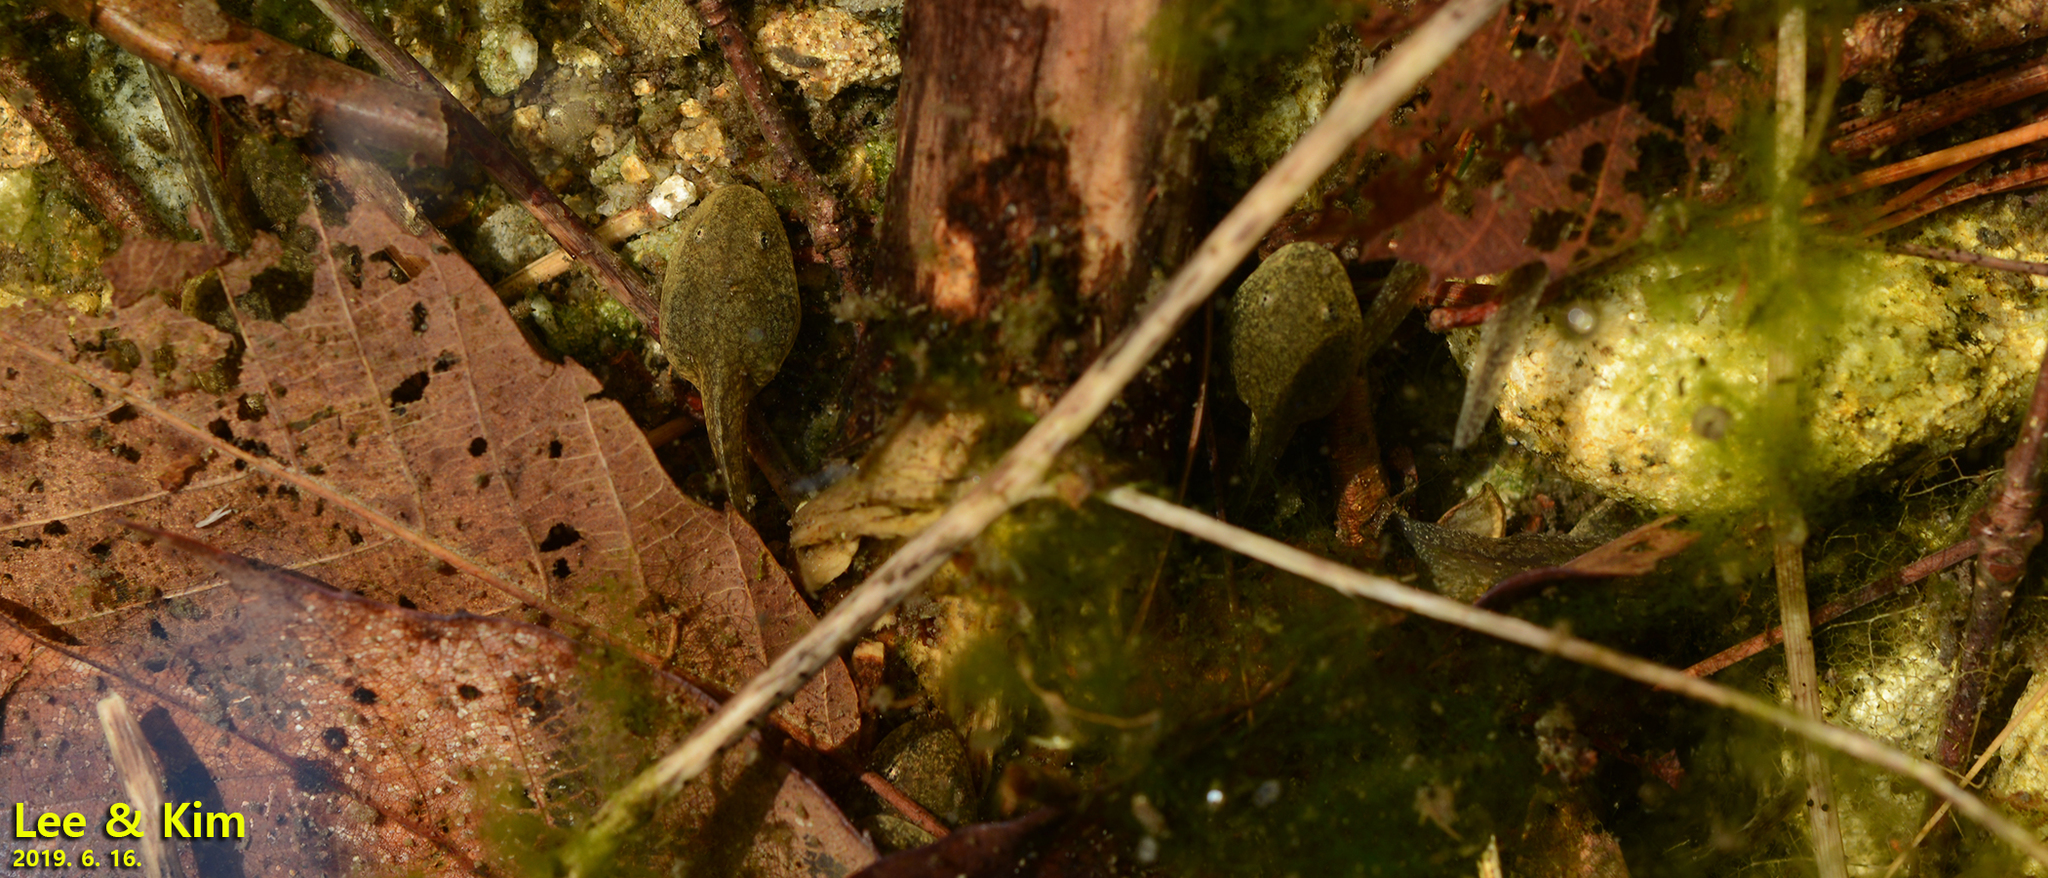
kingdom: Animalia
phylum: Chordata
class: Amphibia
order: Anura
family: Ranidae
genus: Rana
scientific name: Rana huanrenensis
